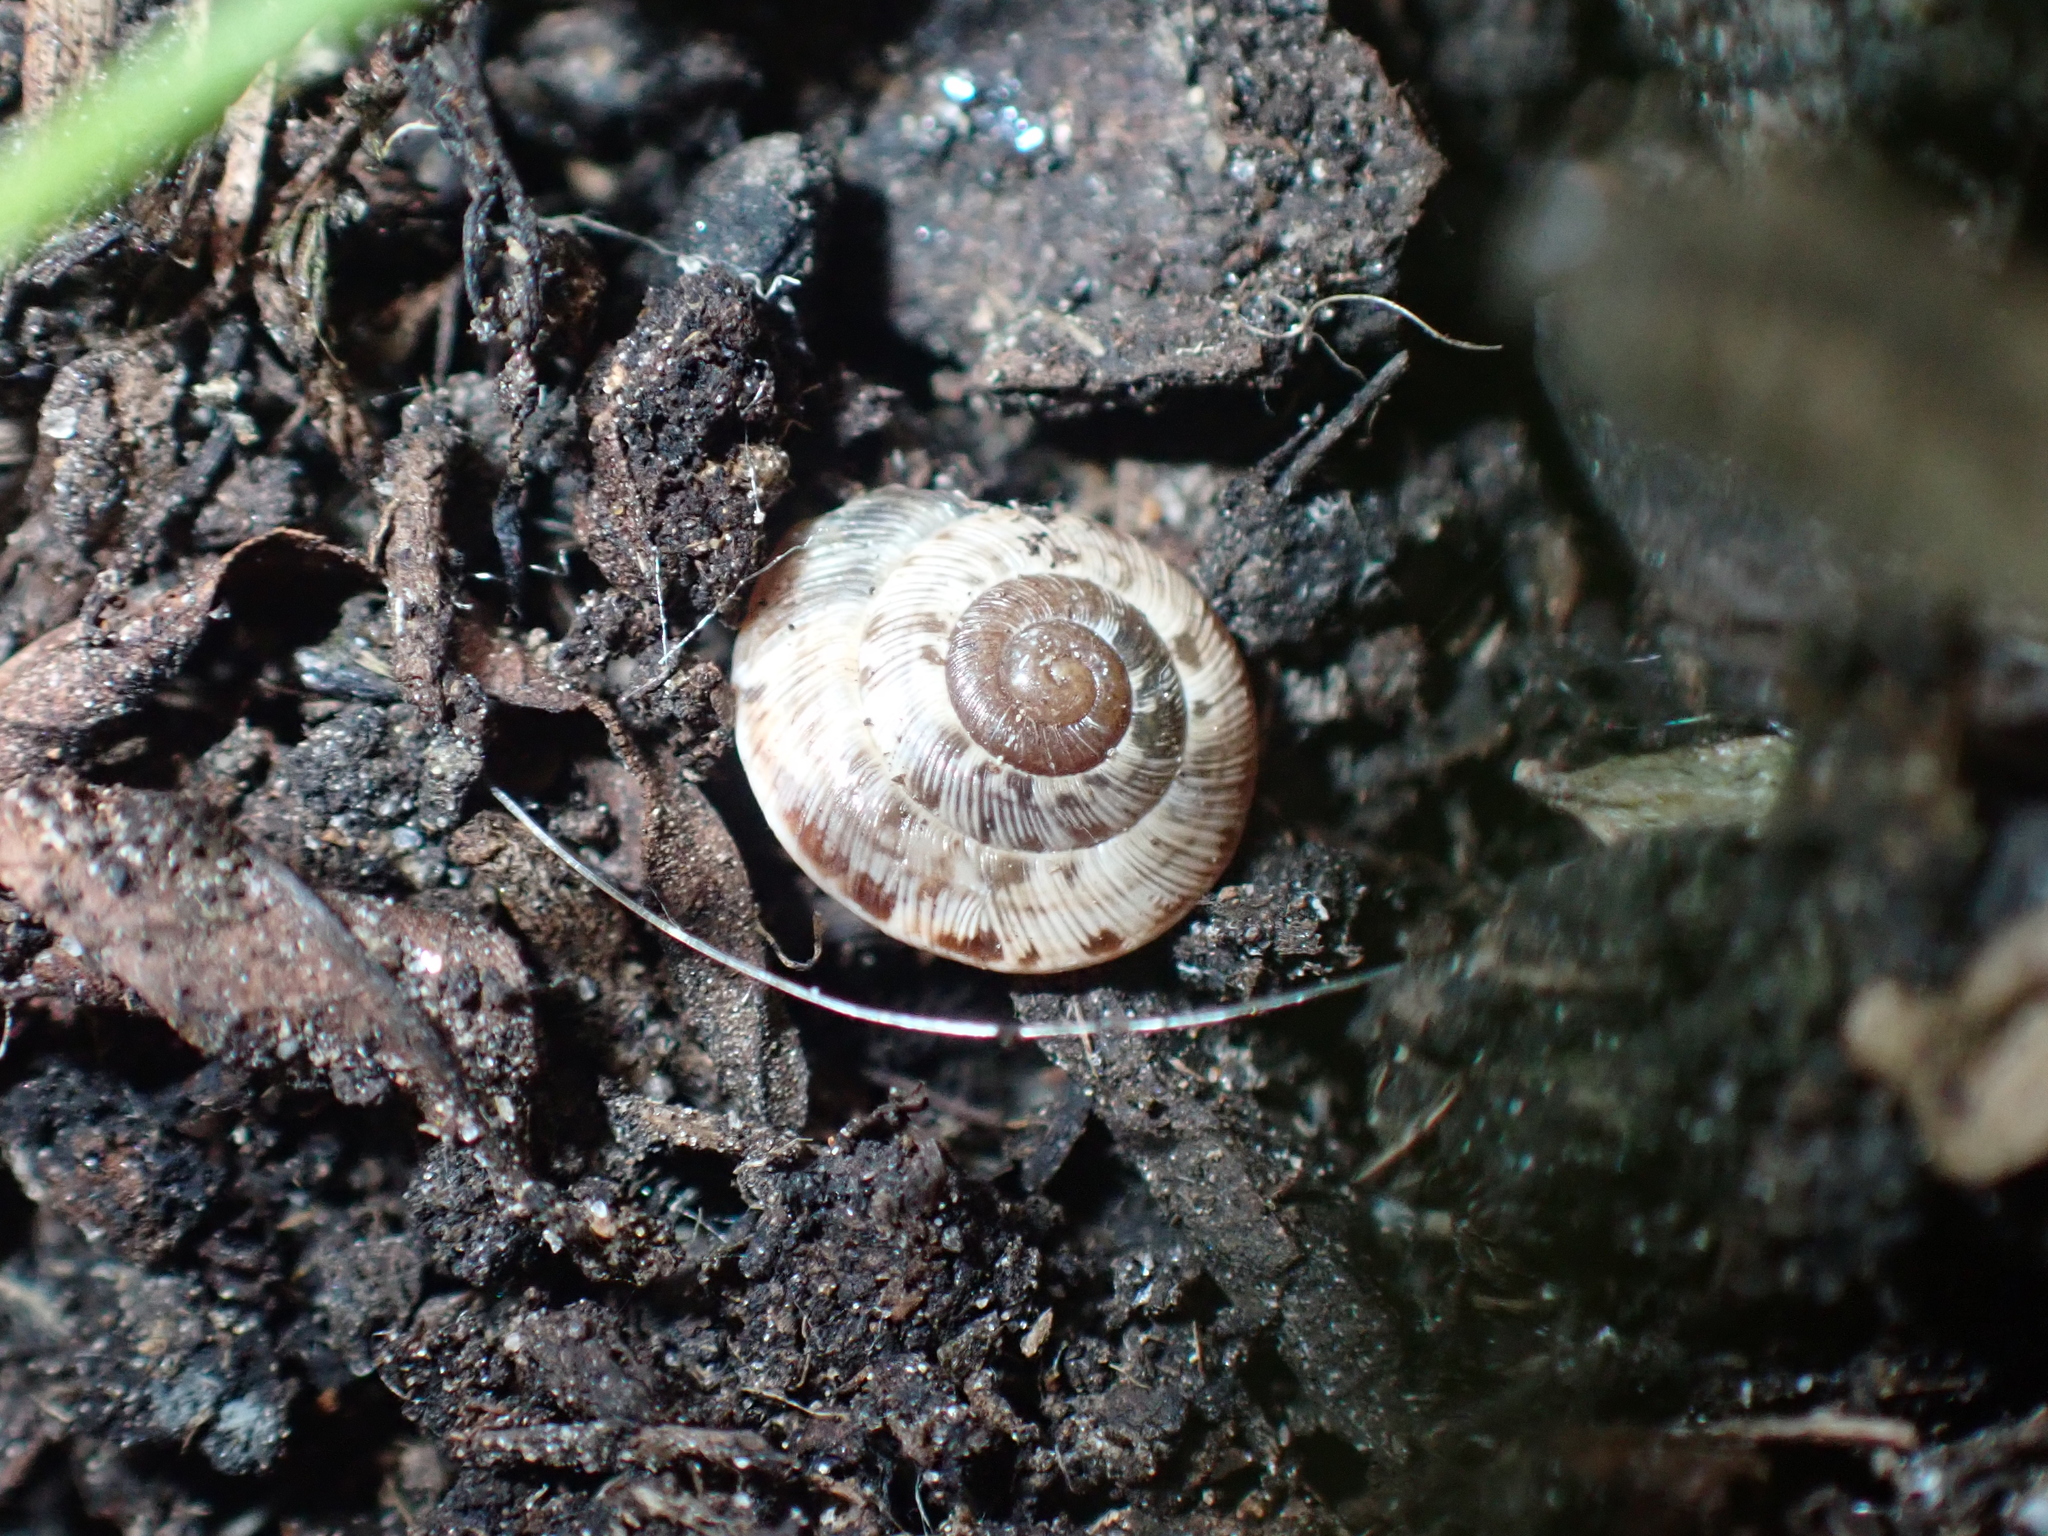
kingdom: Animalia
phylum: Mollusca
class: Gastropoda
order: Stylommatophora
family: Geomitridae
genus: Xeroplexa
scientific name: Xeroplexa intersecta
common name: Wrinkled snail
